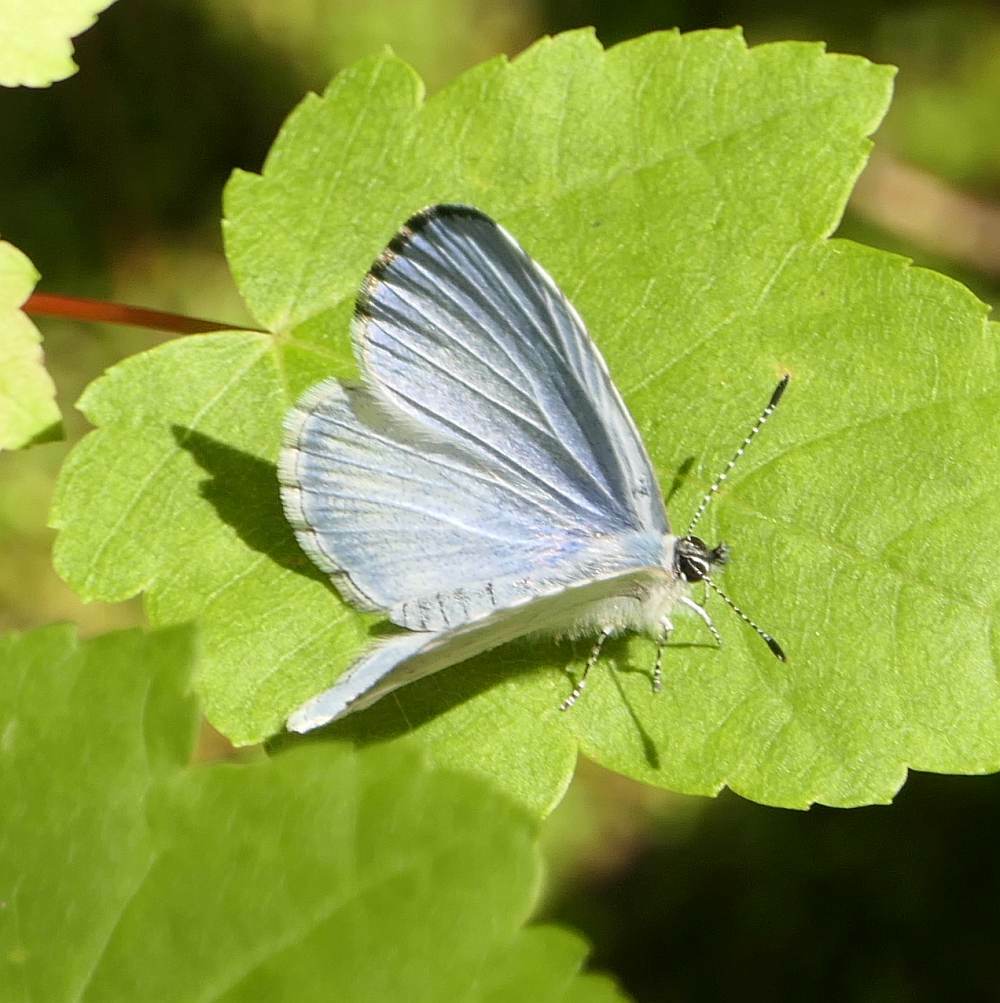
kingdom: Animalia
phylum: Arthropoda
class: Insecta
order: Lepidoptera
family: Lycaenidae
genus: Celastrina
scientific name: Celastrina lucia
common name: Lucia azure
